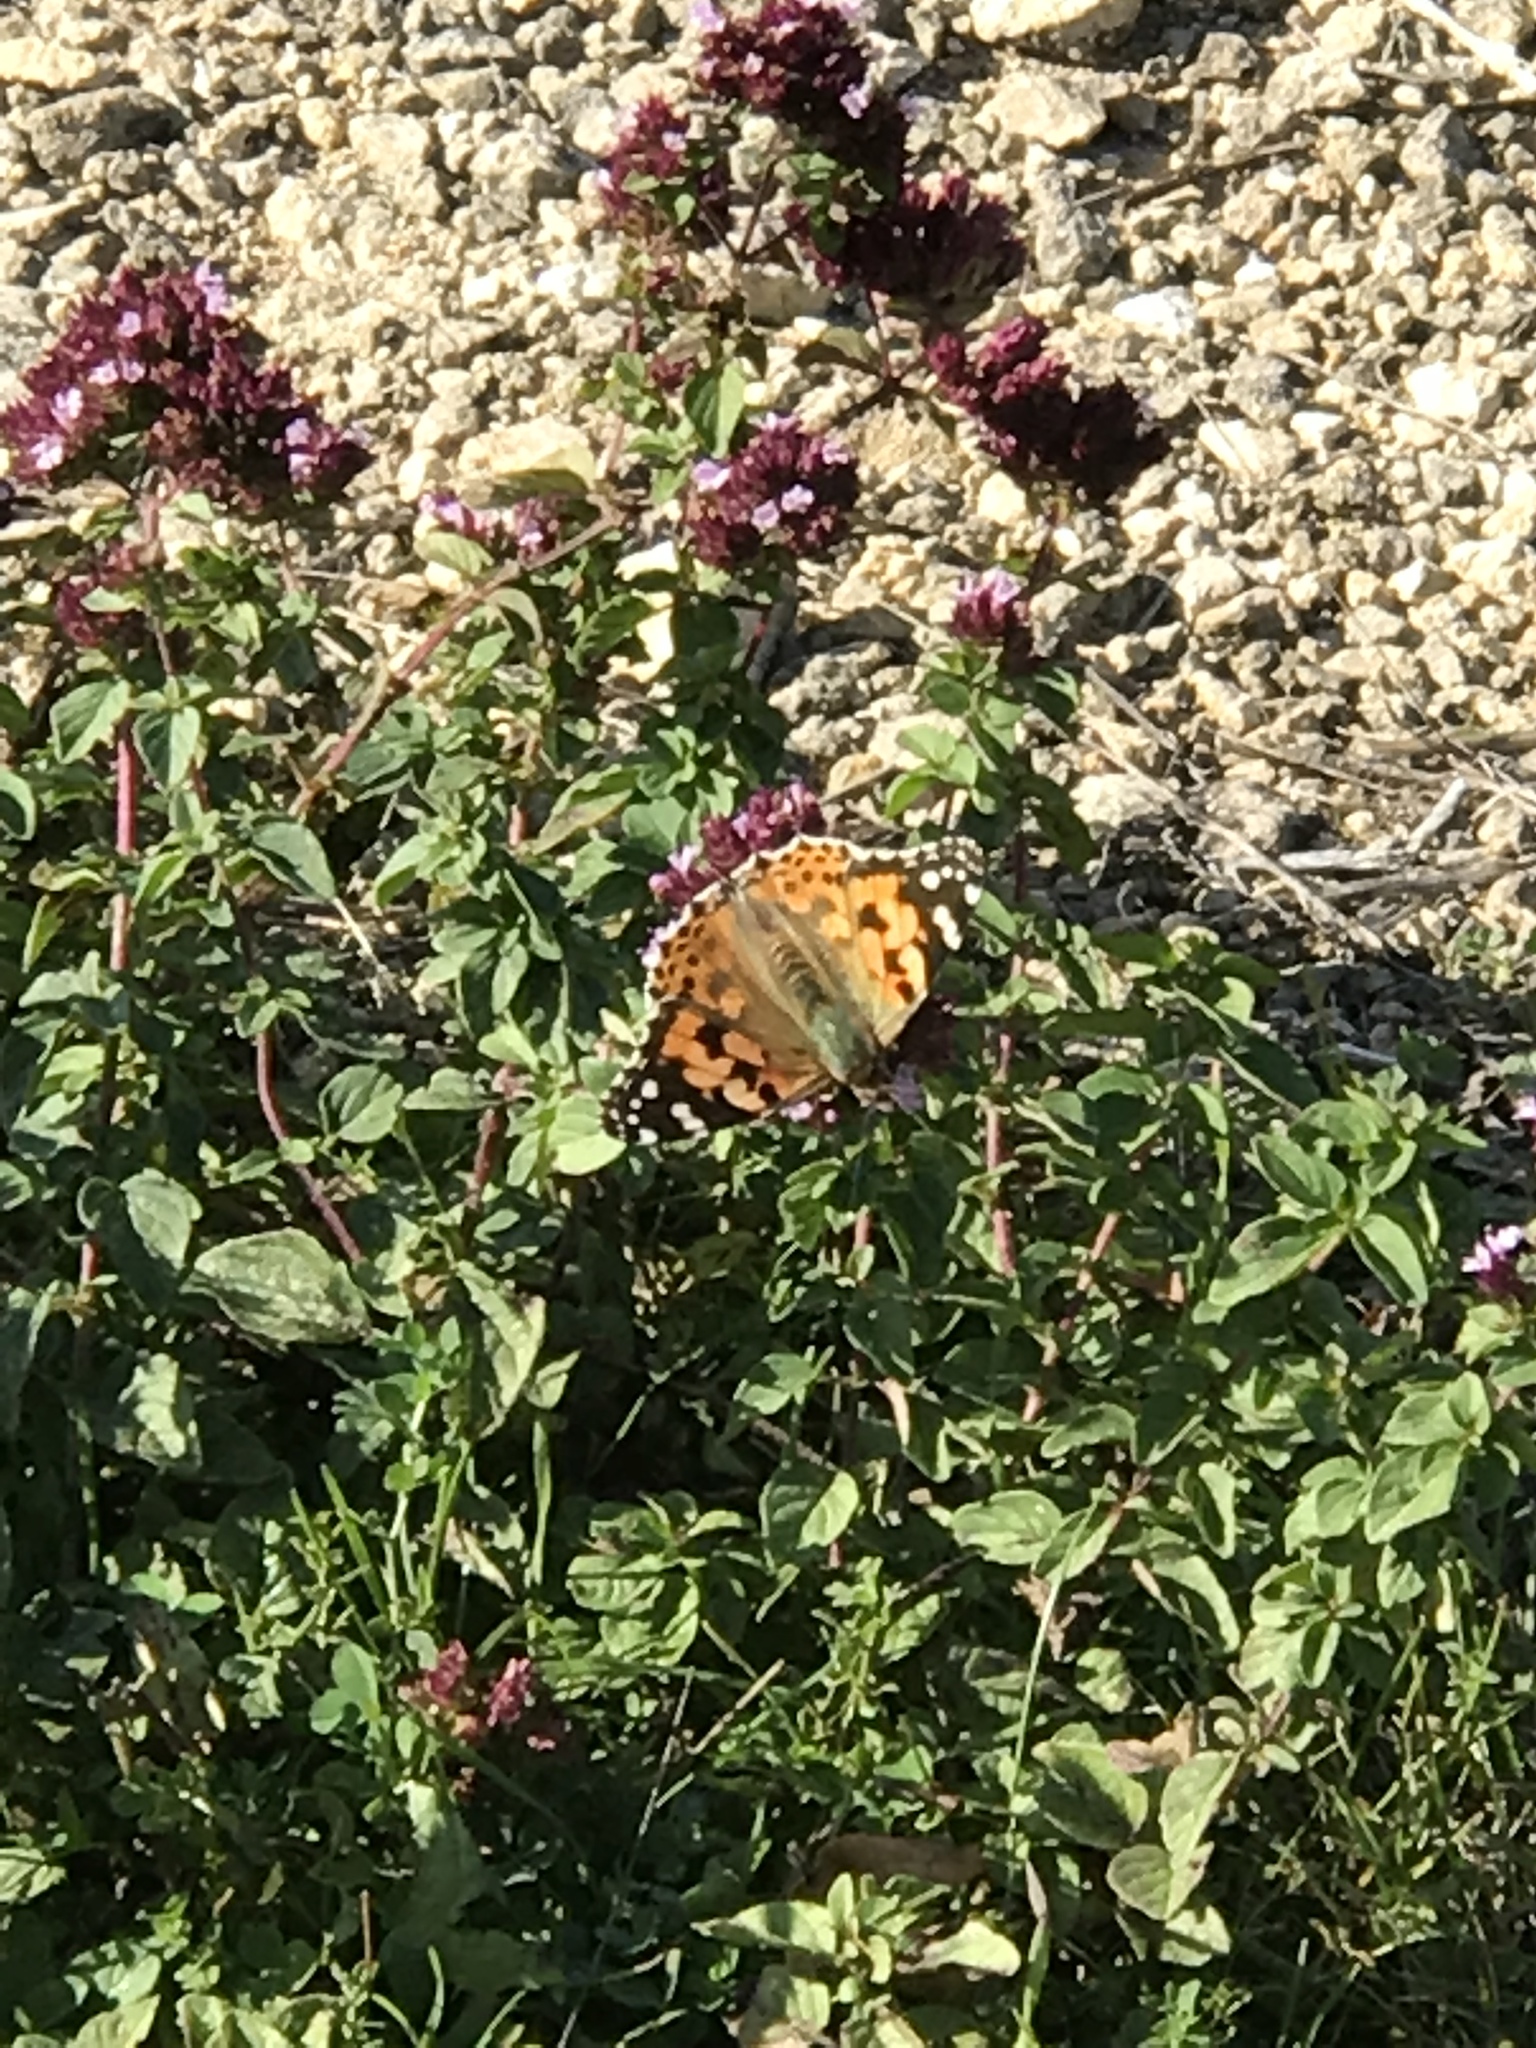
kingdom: Animalia
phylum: Arthropoda
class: Insecta
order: Lepidoptera
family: Nymphalidae
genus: Vanessa
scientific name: Vanessa cardui
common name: Painted lady
